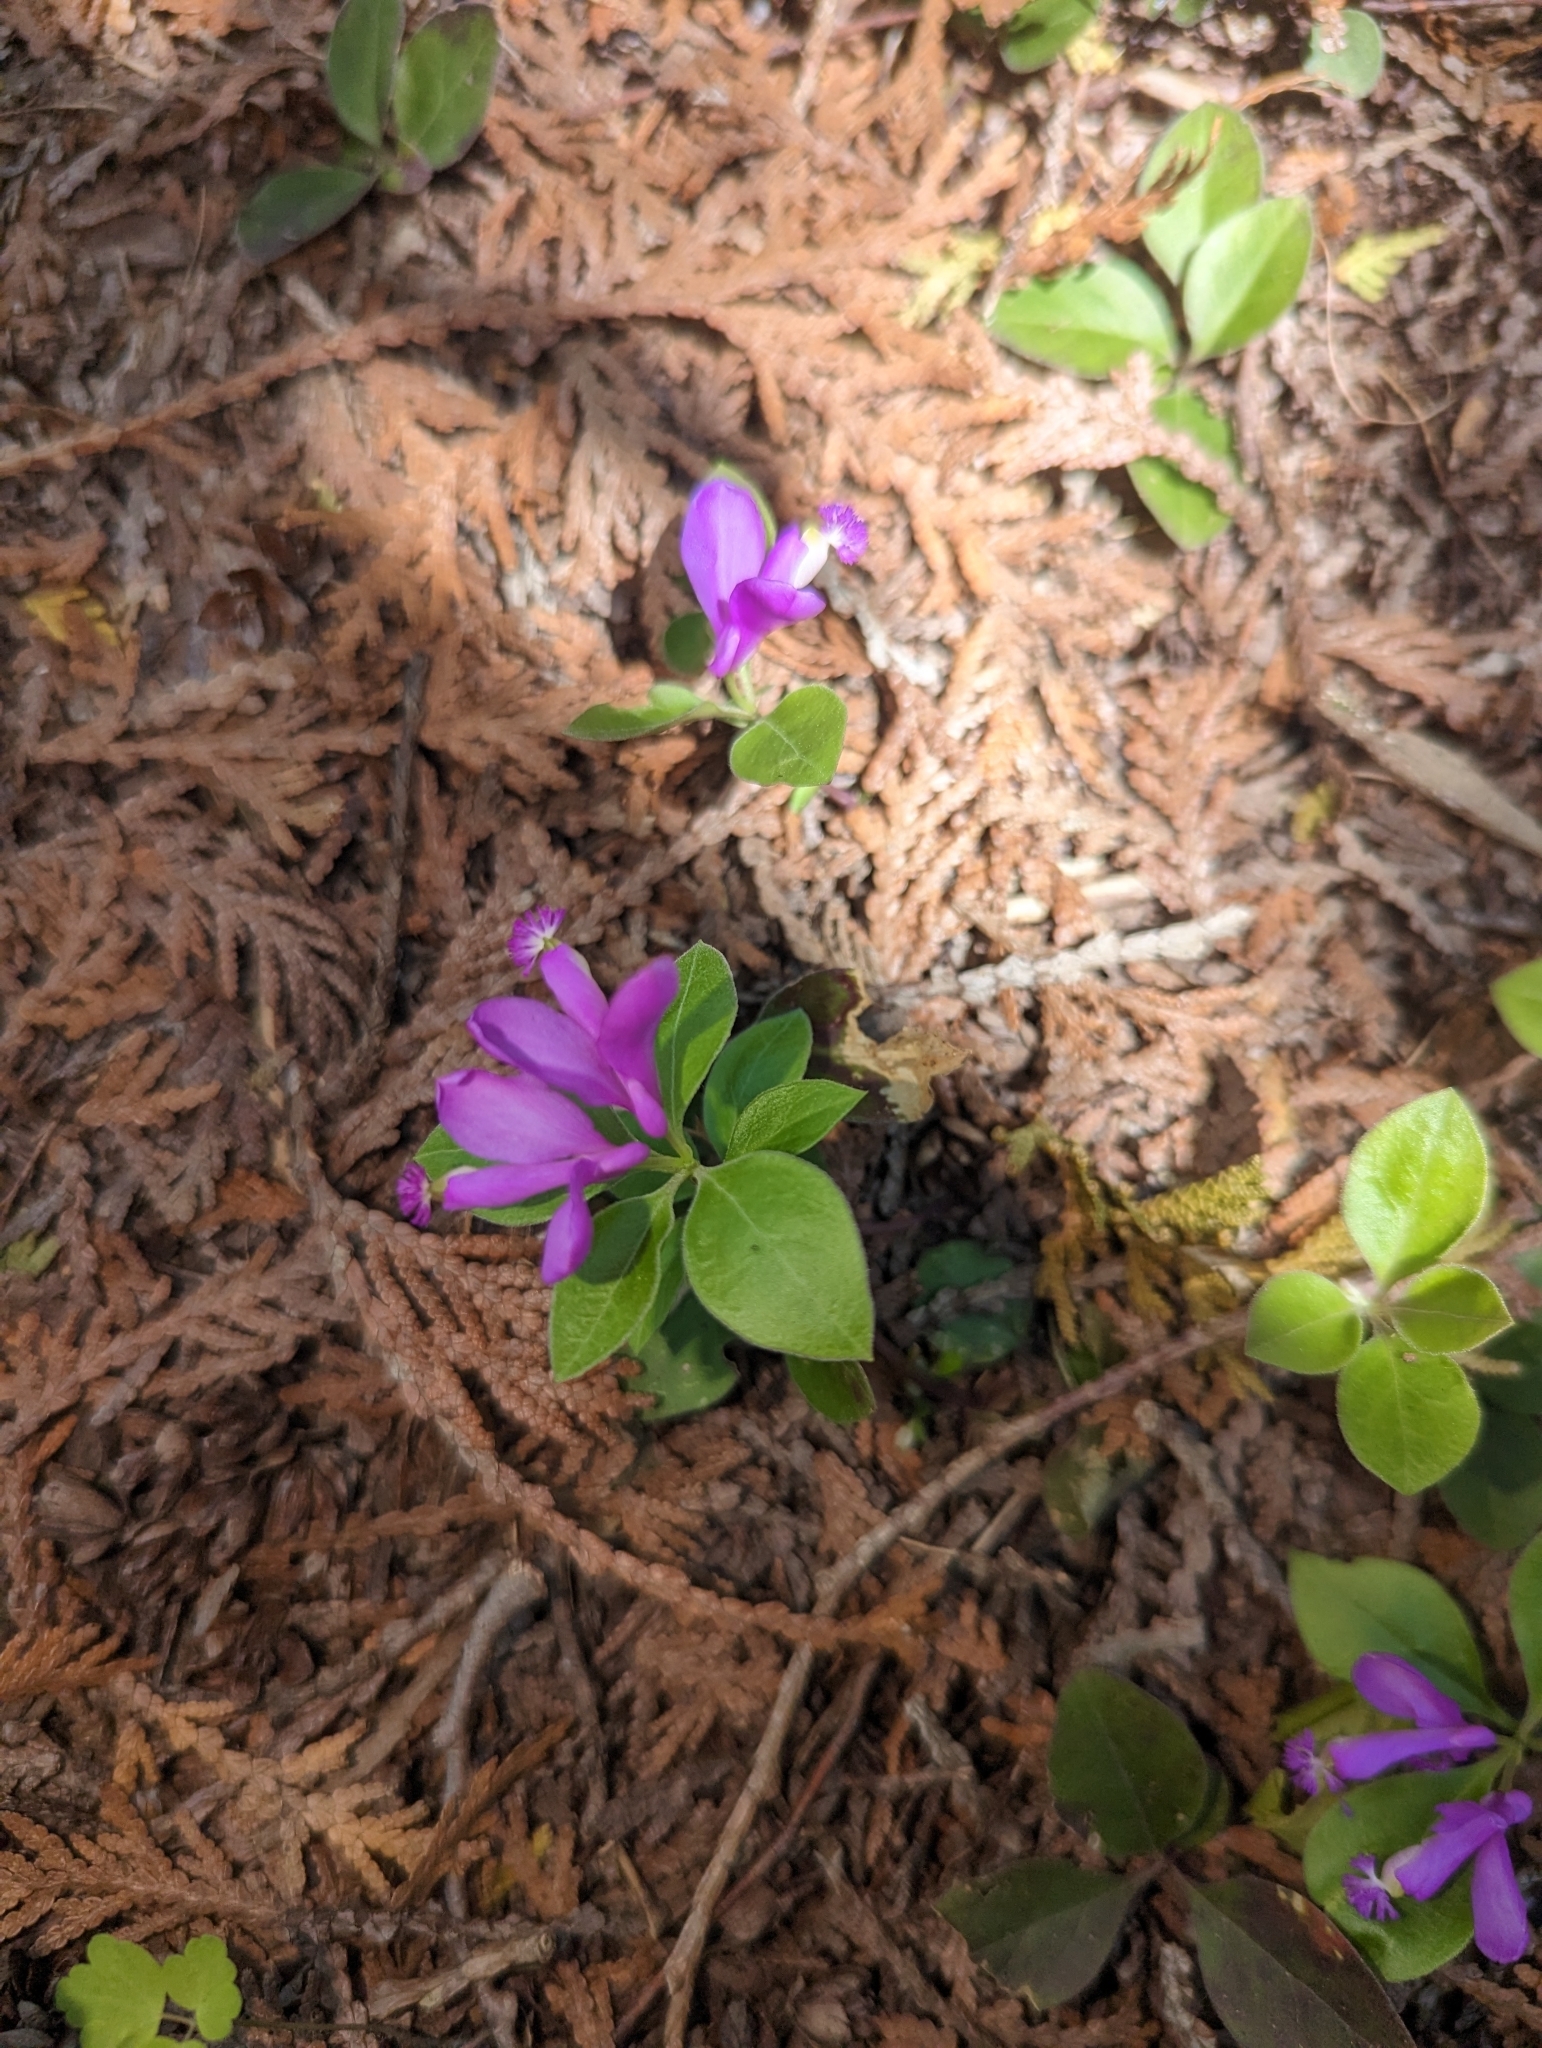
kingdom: Plantae
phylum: Tracheophyta
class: Magnoliopsida
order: Fabales
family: Polygalaceae
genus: Polygaloides
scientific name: Polygaloides paucifolia
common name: Bird-on-the-wing
